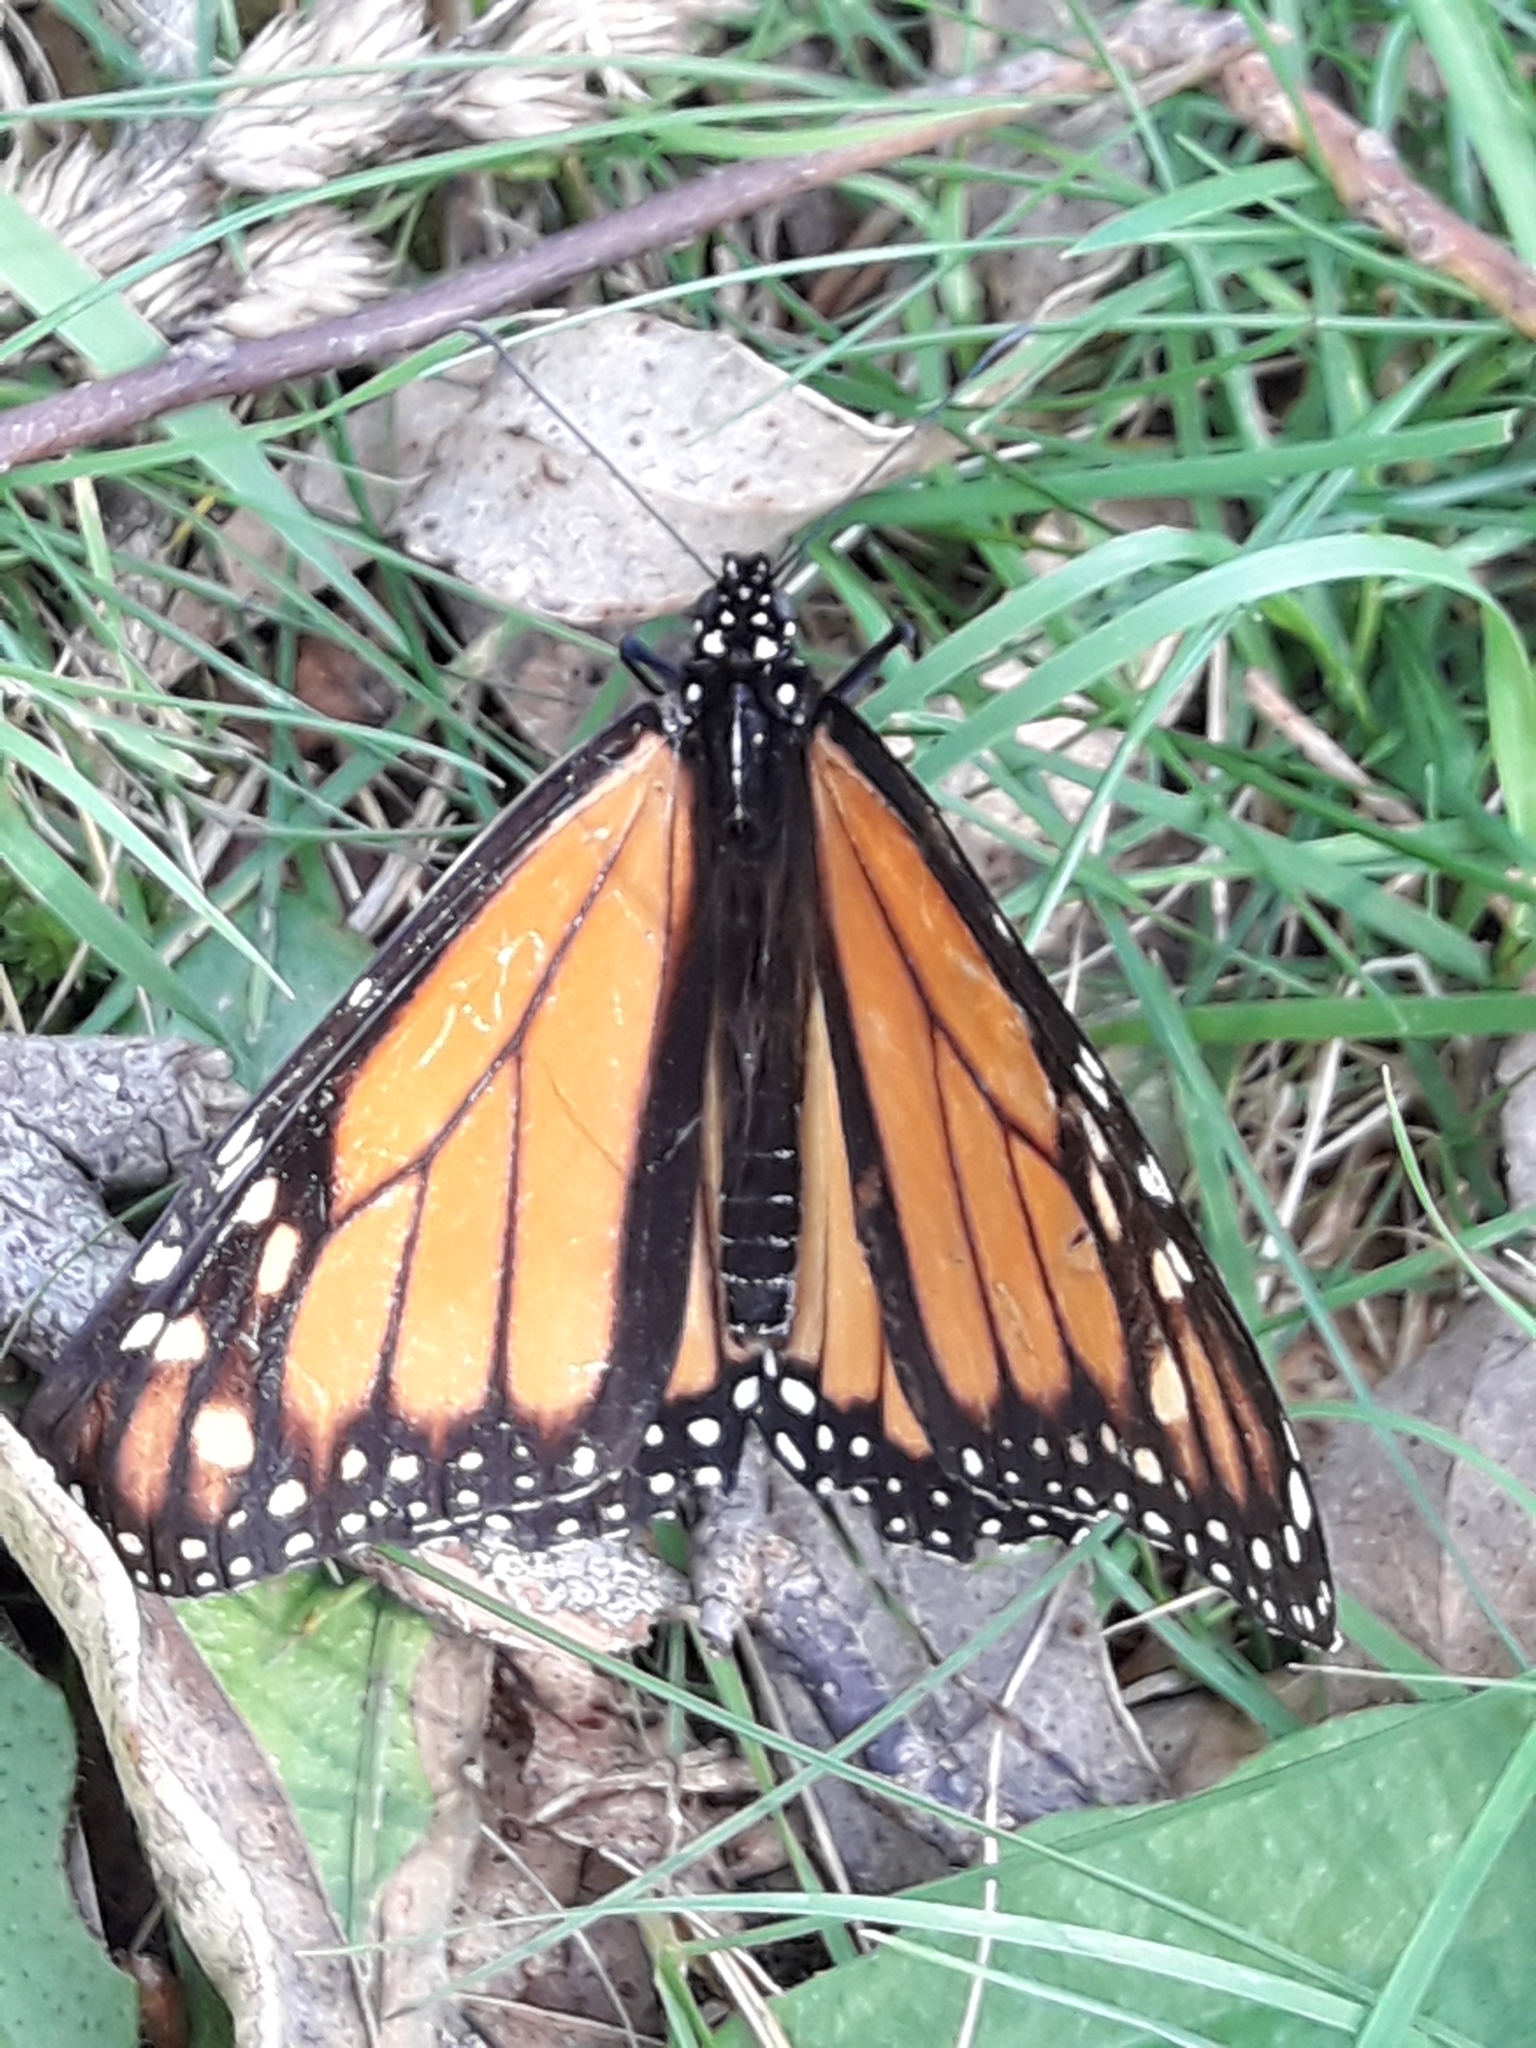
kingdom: Animalia
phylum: Arthropoda
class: Insecta
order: Lepidoptera
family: Nymphalidae
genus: Danaus
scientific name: Danaus plexippus
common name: Monarch
